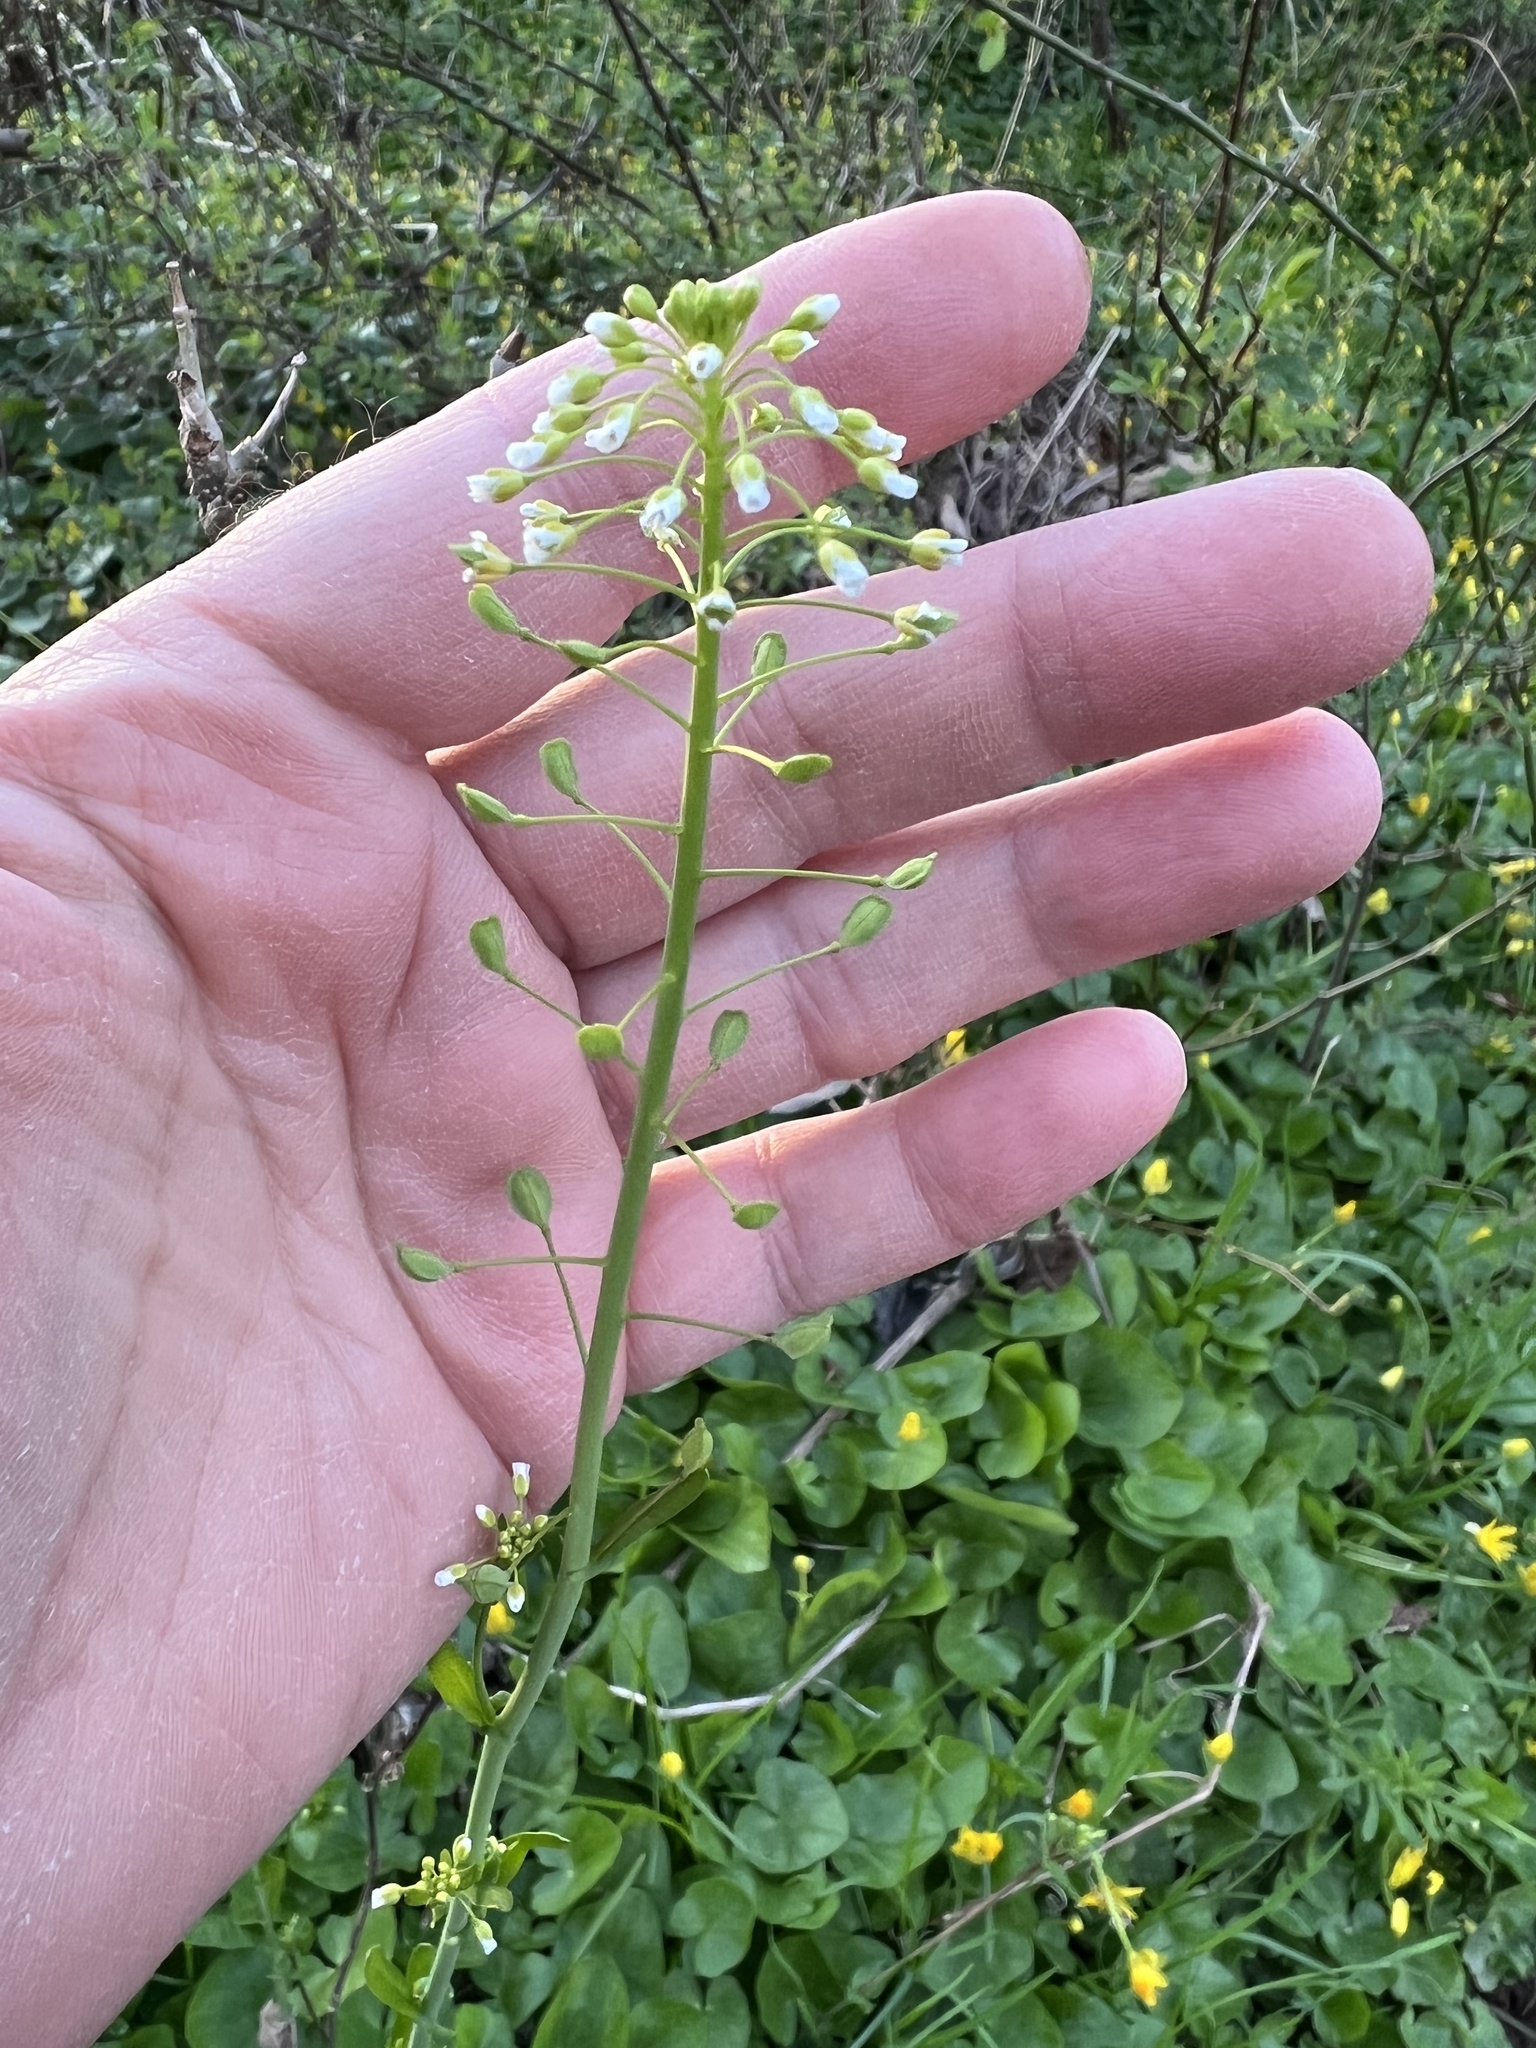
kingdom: Plantae
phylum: Tracheophyta
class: Magnoliopsida
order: Brassicales
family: Brassicaceae
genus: Mummenhoffia
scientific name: Mummenhoffia alliacea
